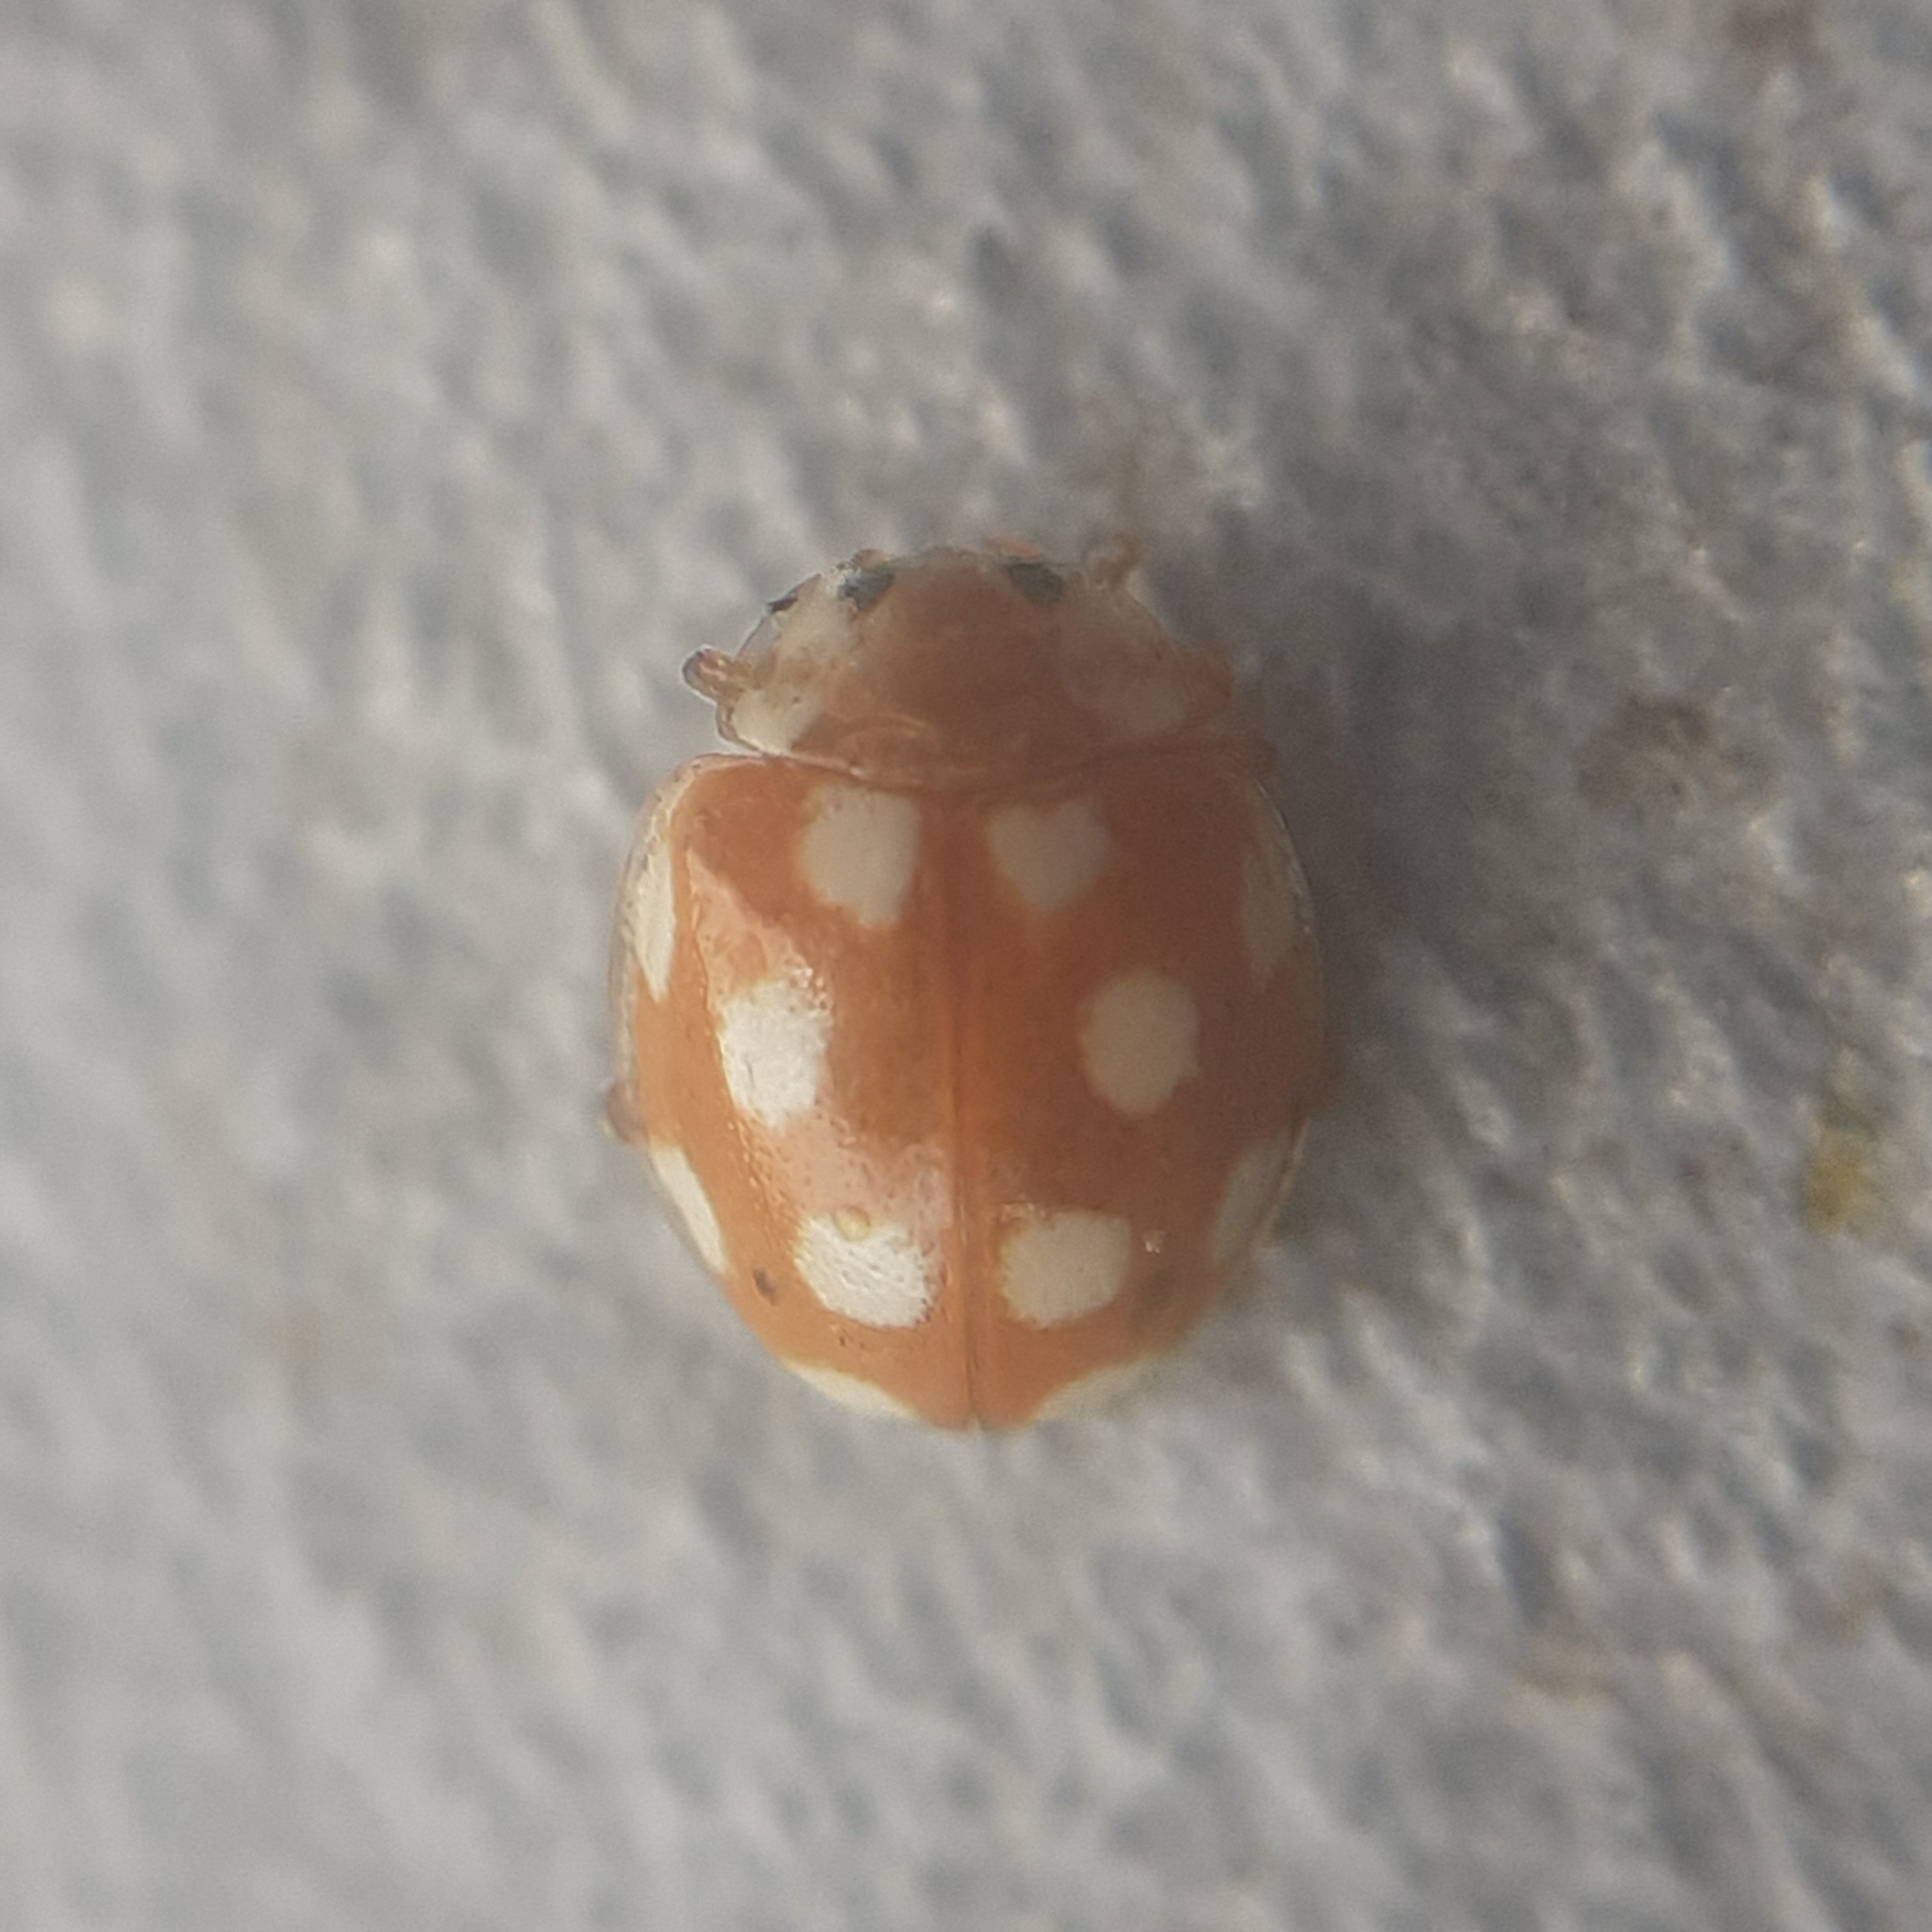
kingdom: Animalia
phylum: Arthropoda
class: Insecta
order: Coleoptera
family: Coccinellidae
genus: Vibidia
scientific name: Vibidia duodecimguttata
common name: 12-spot ladybird
